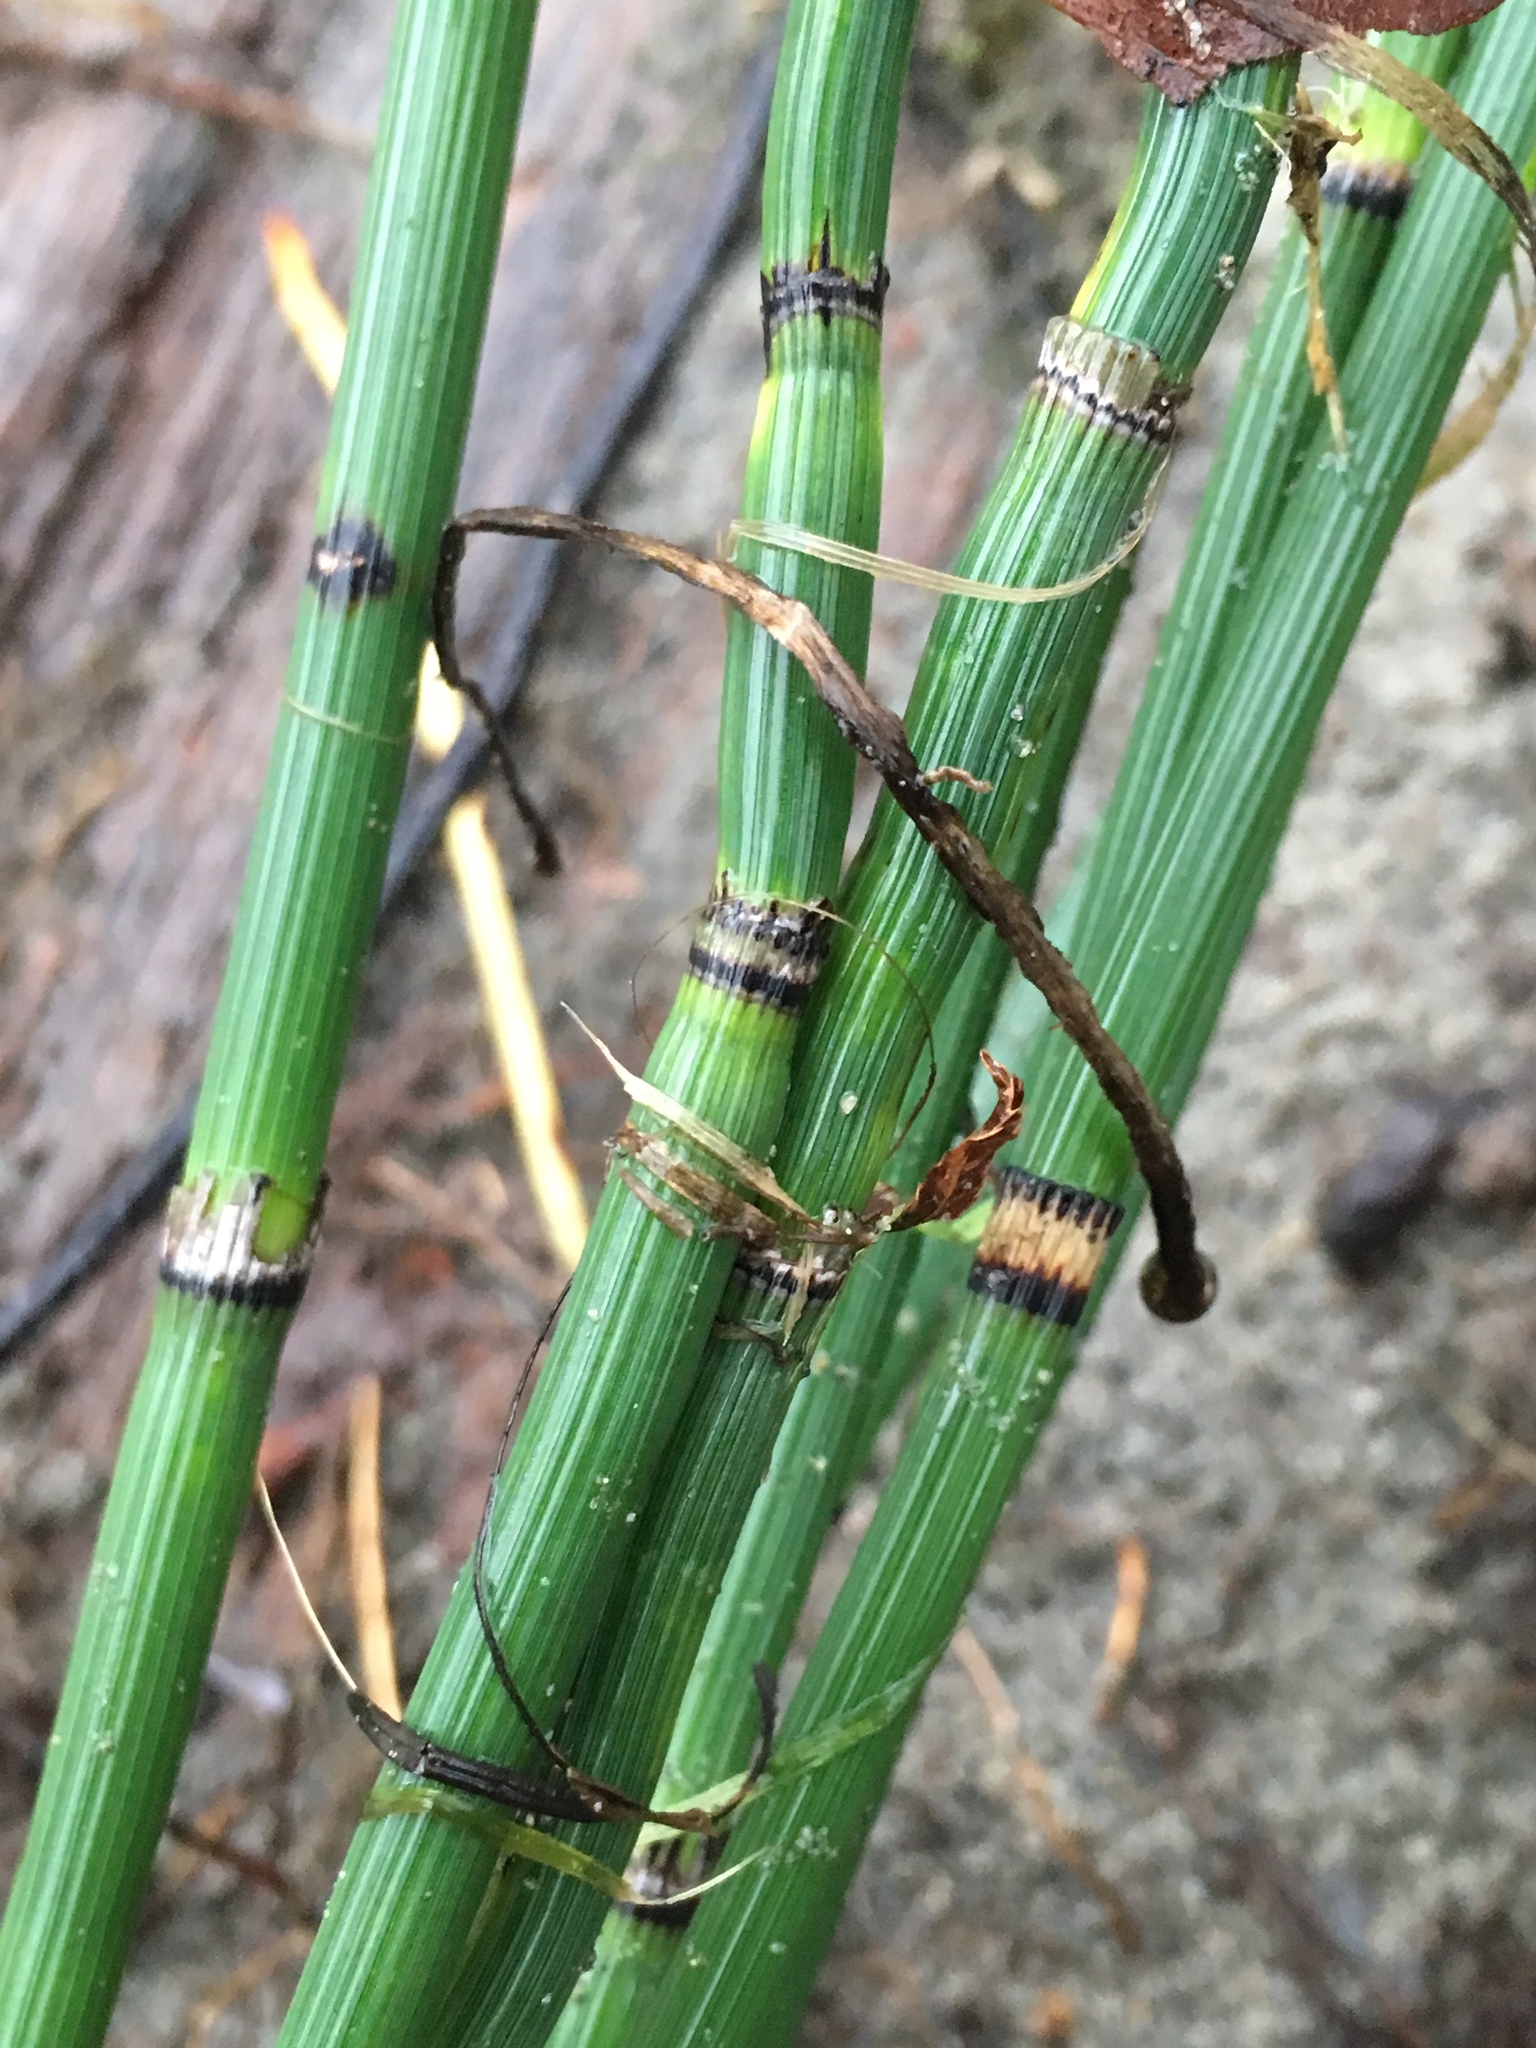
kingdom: Plantae
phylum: Tracheophyta
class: Polypodiopsida
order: Equisetales
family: Equisetaceae
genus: Equisetum
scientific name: Equisetum praealtum
